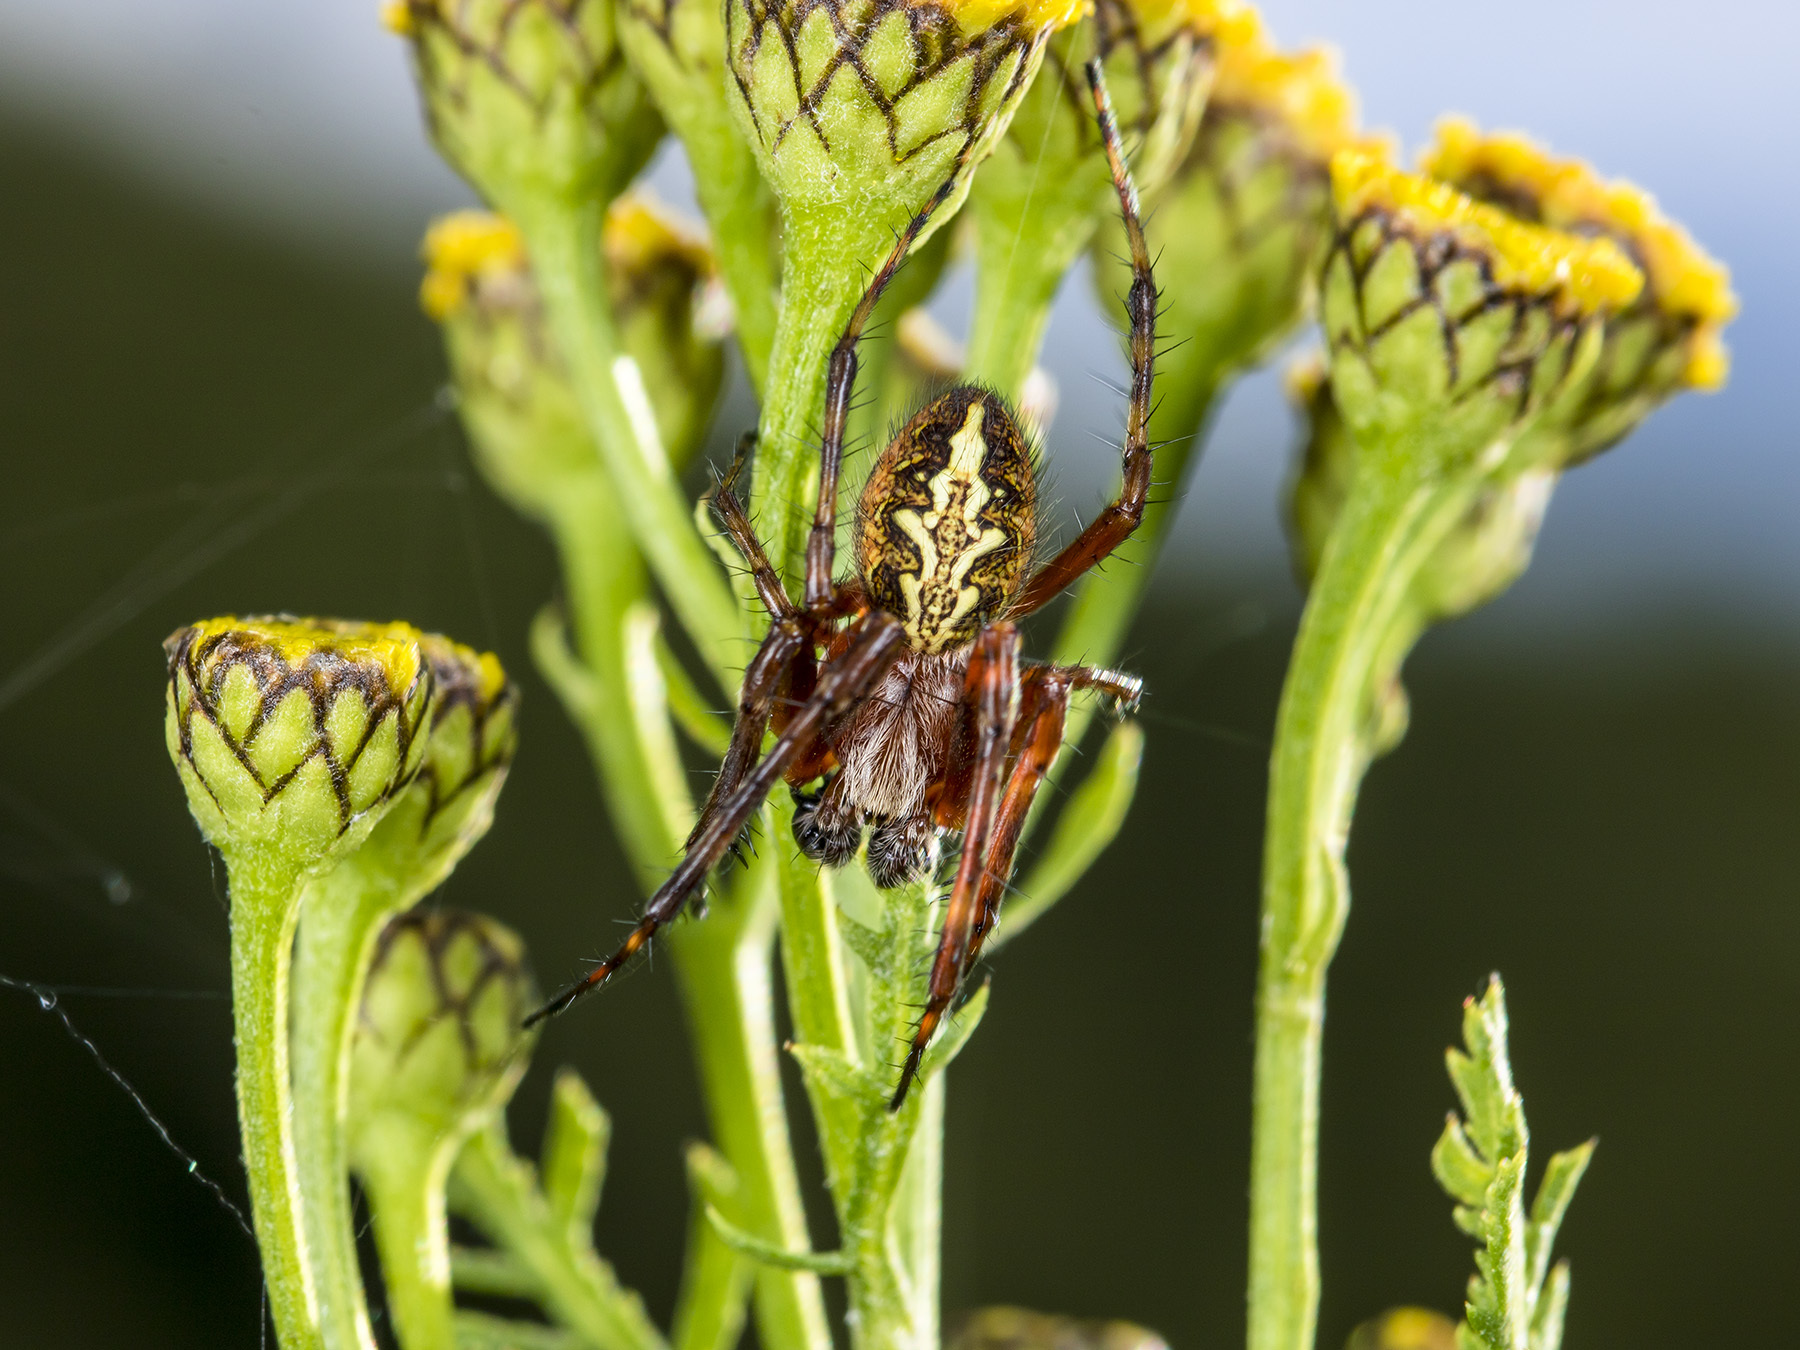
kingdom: Animalia
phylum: Arthropoda
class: Arachnida
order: Araneae
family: Araneidae
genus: Aculepeira
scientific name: Aculepeira packardi
